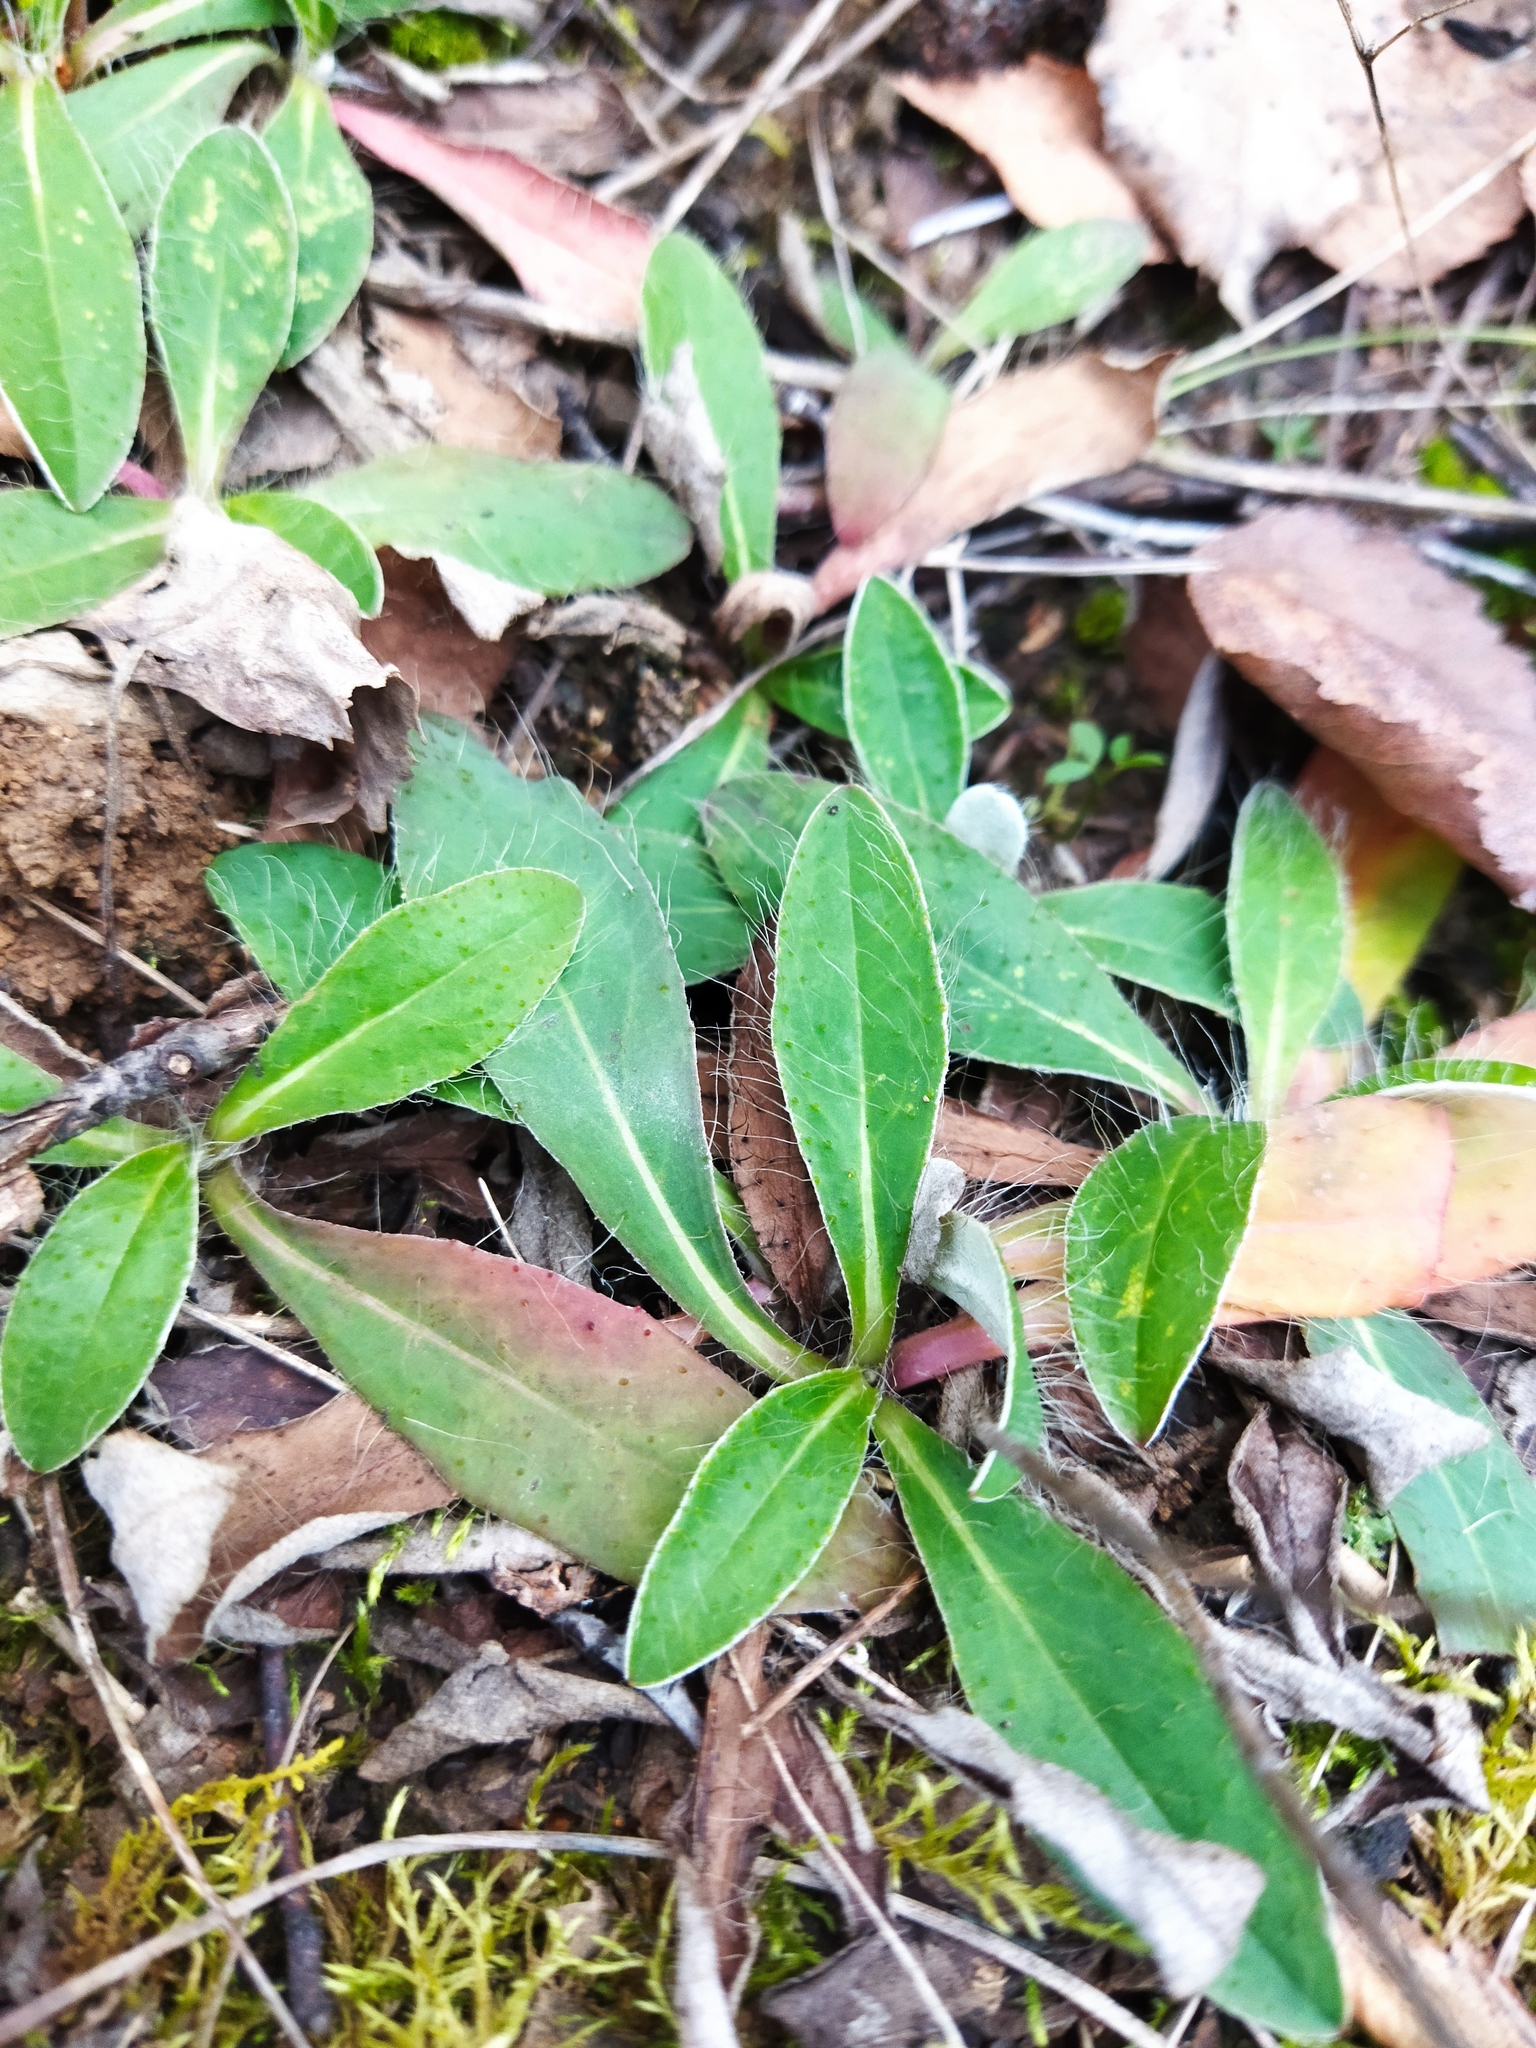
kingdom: Plantae
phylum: Tracheophyta
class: Magnoliopsida
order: Asterales
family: Asteraceae
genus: Pilosella
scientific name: Pilosella officinarum
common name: Mouse-ear hawkweed
